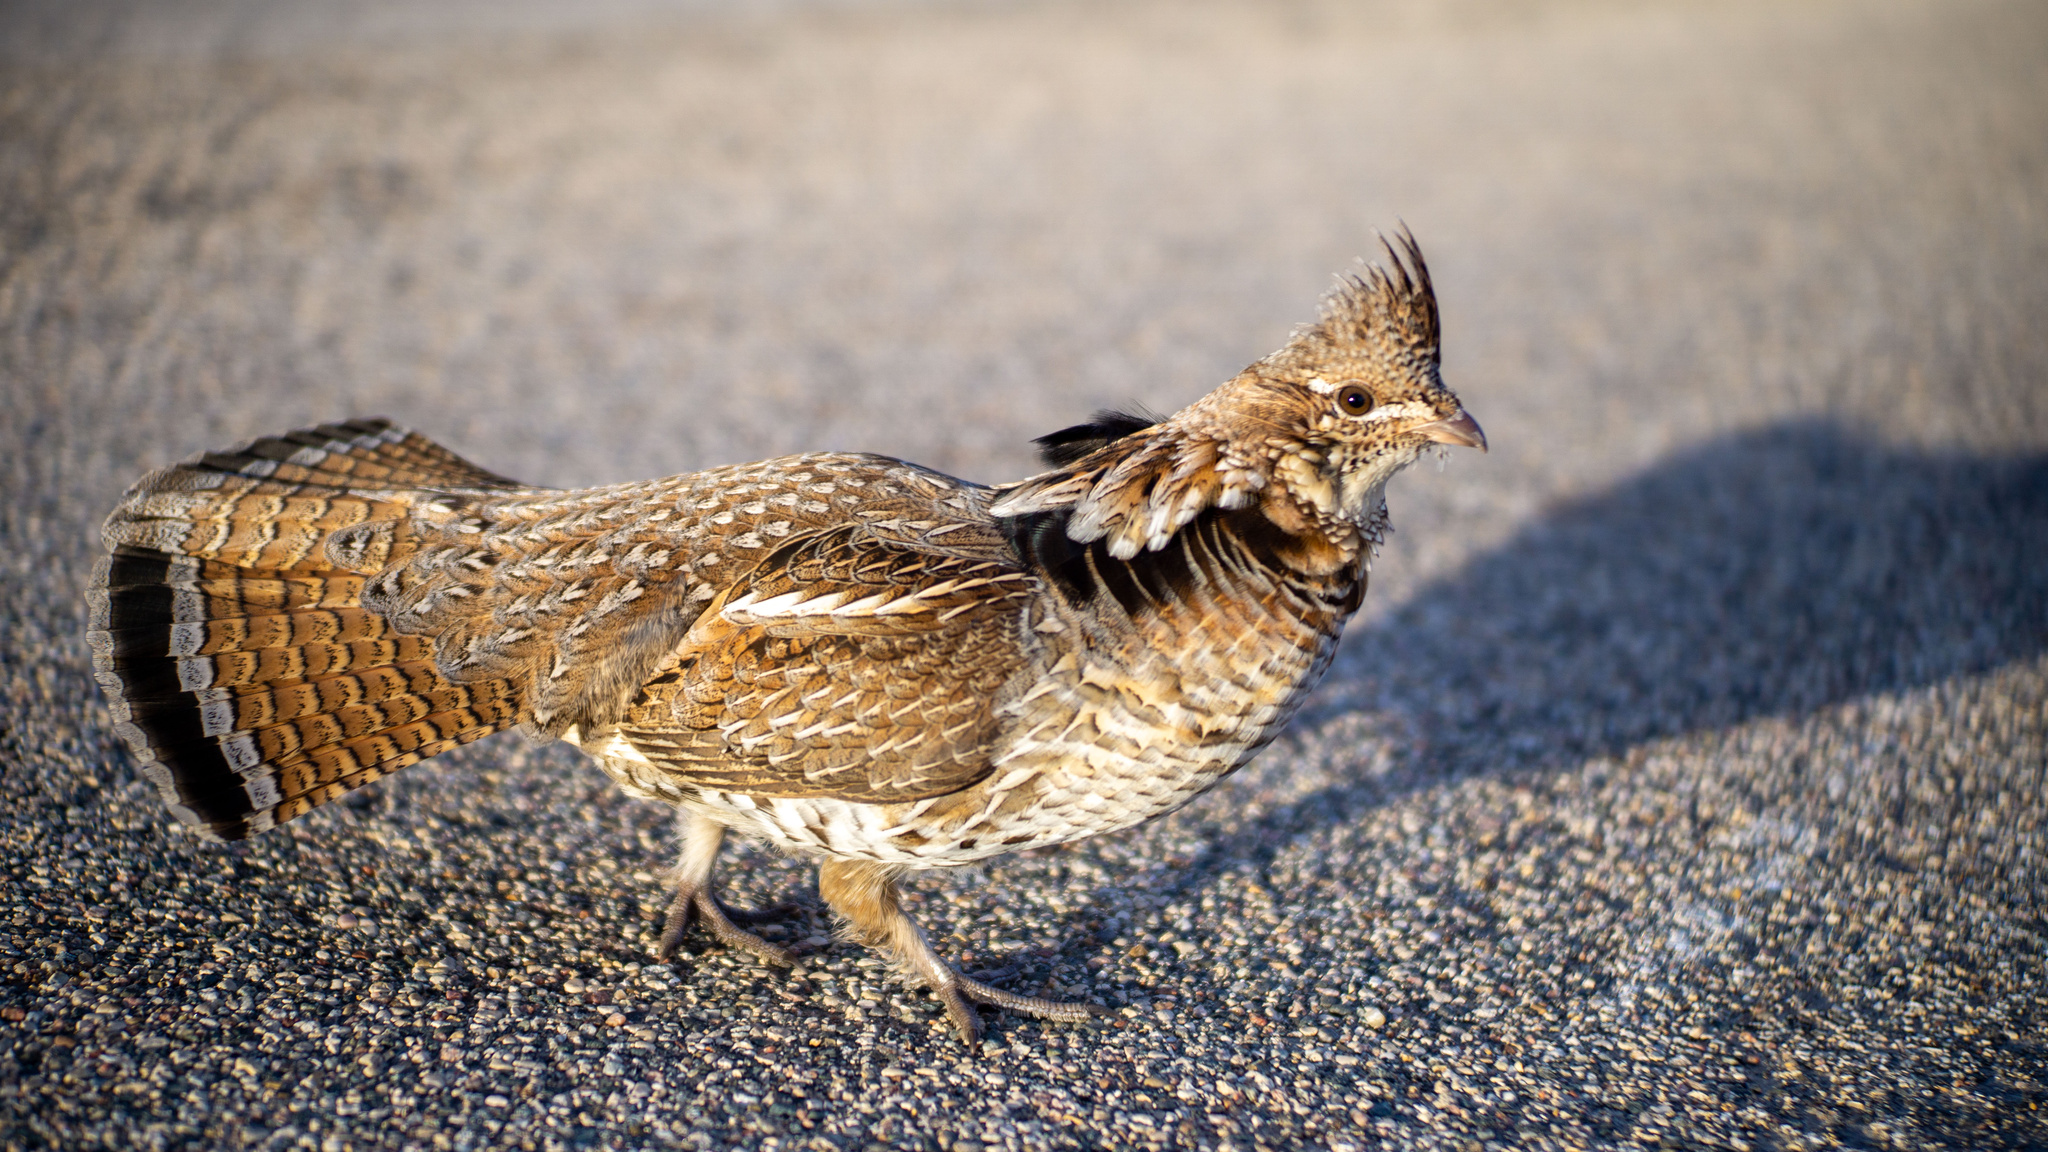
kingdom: Animalia
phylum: Chordata
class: Aves
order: Galliformes
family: Phasianidae
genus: Bonasa
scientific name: Bonasa umbellus
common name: Ruffed grouse
